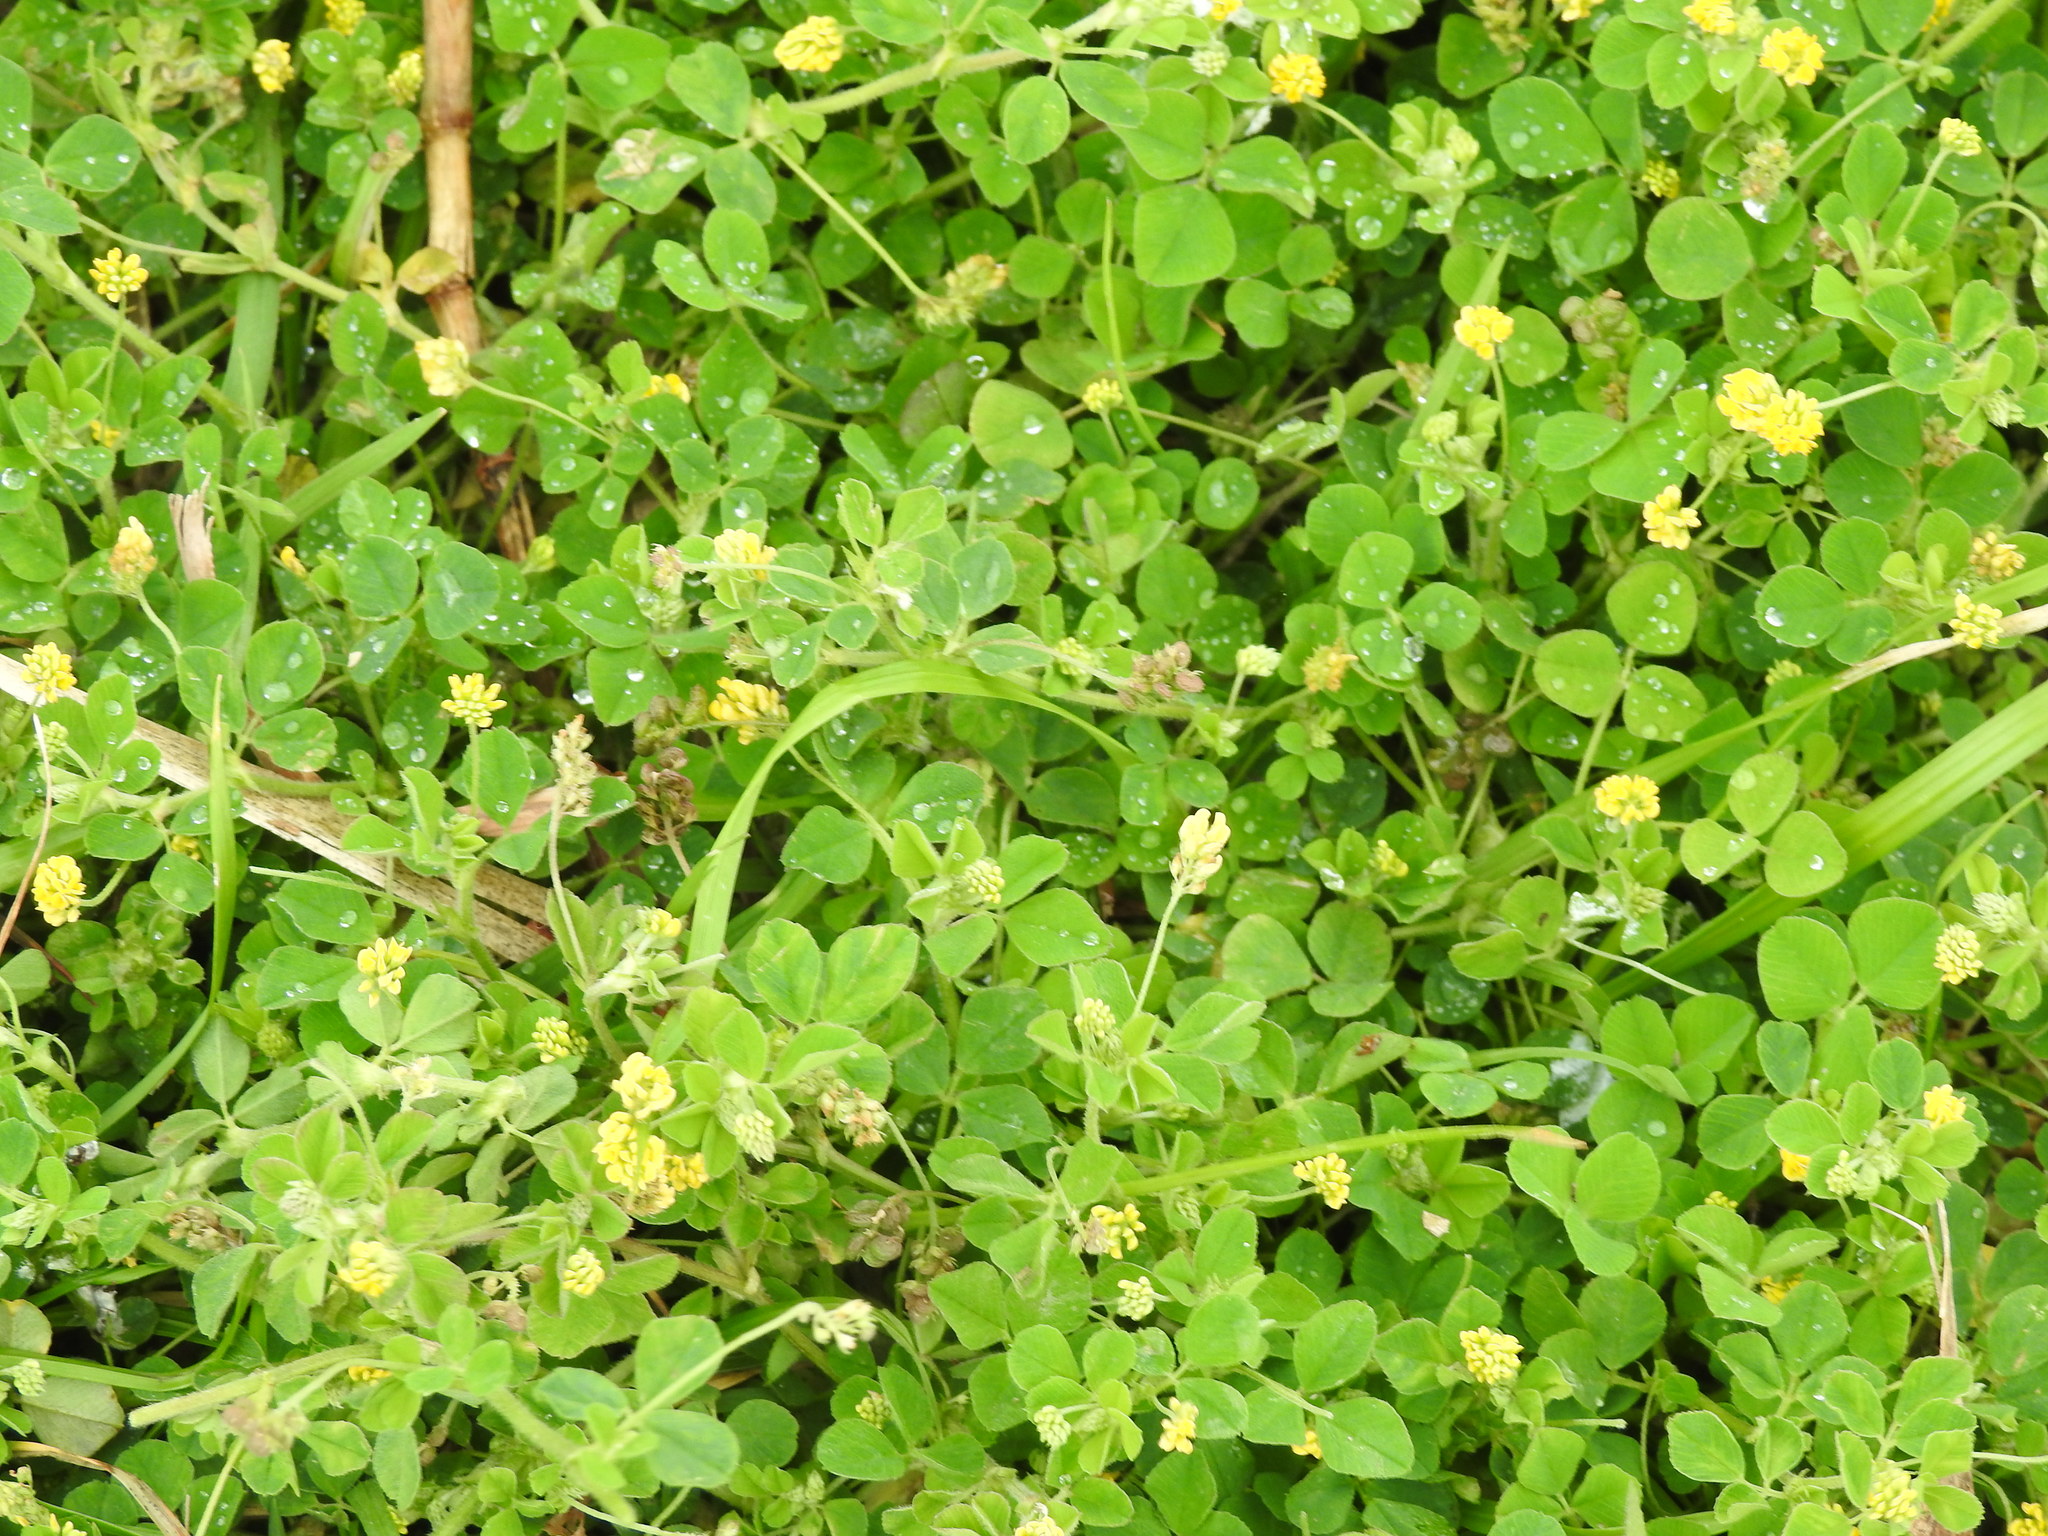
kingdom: Plantae
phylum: Tracheophyta
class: Magnoliopsida
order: Fabales
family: Fabaceae
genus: Medicago
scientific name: Medicago lupulina
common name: Black medick
